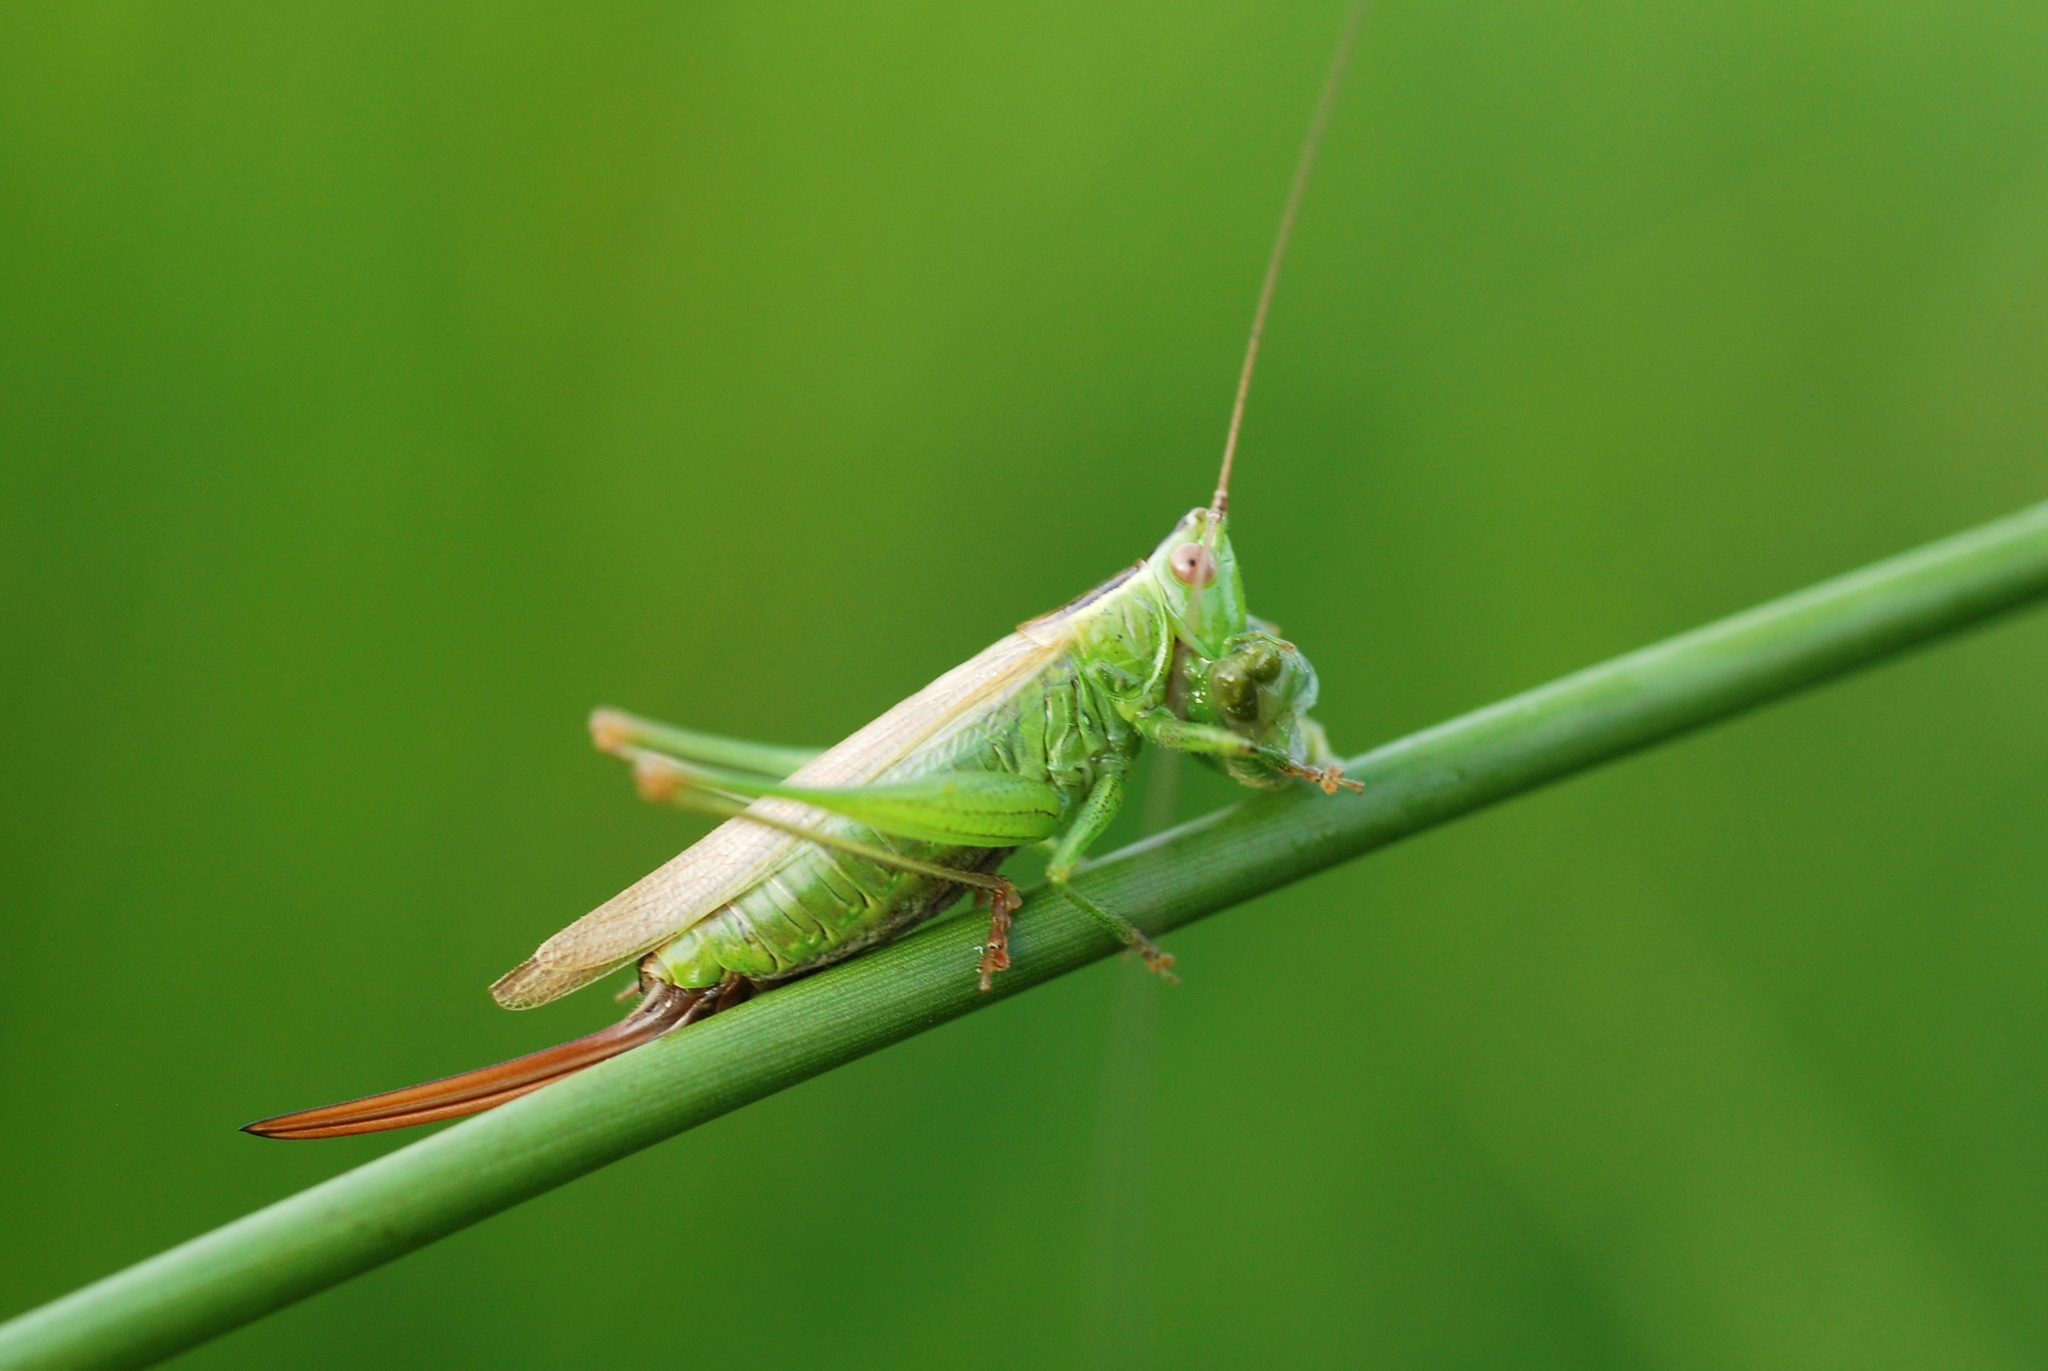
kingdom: Animalia
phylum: Arthropoda
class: Insecta
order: Orthoptera
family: Tettigoniidae
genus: Conocephalus
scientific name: Conocephalus fuscus
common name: Long-winged conehead
